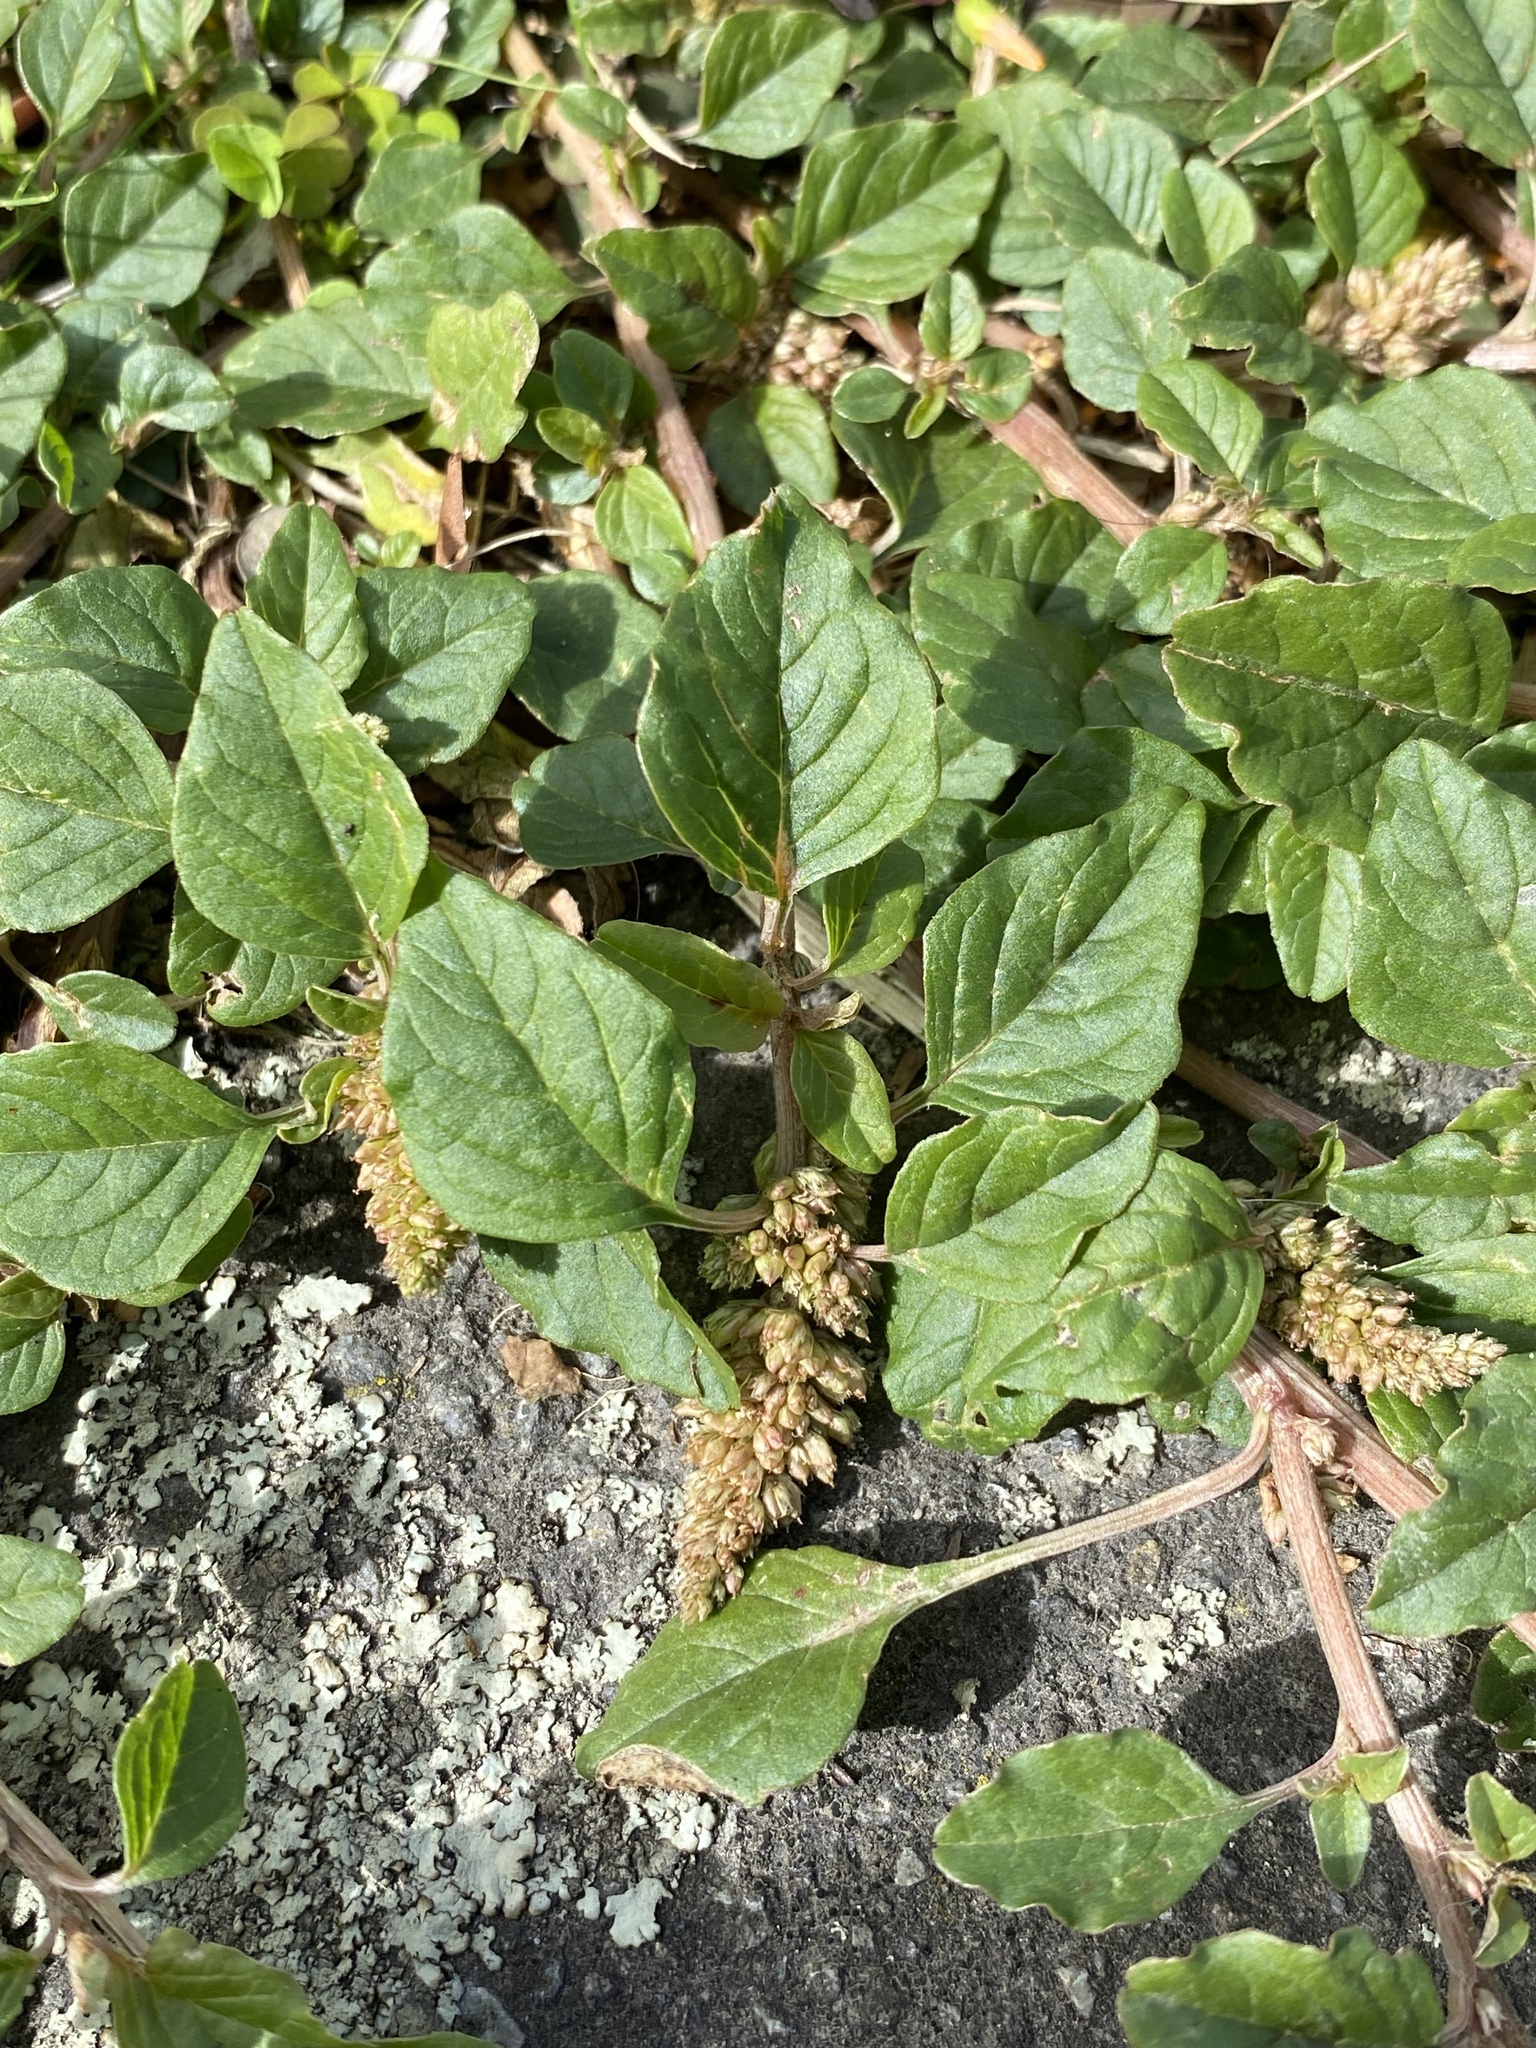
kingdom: Plantae
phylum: Tracheophyta
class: Magnoliopsida
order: Caryophyllales
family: Amaranthaceae
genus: Amaranthus
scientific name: Amaranthus deflexus
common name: Perennial pigweed
